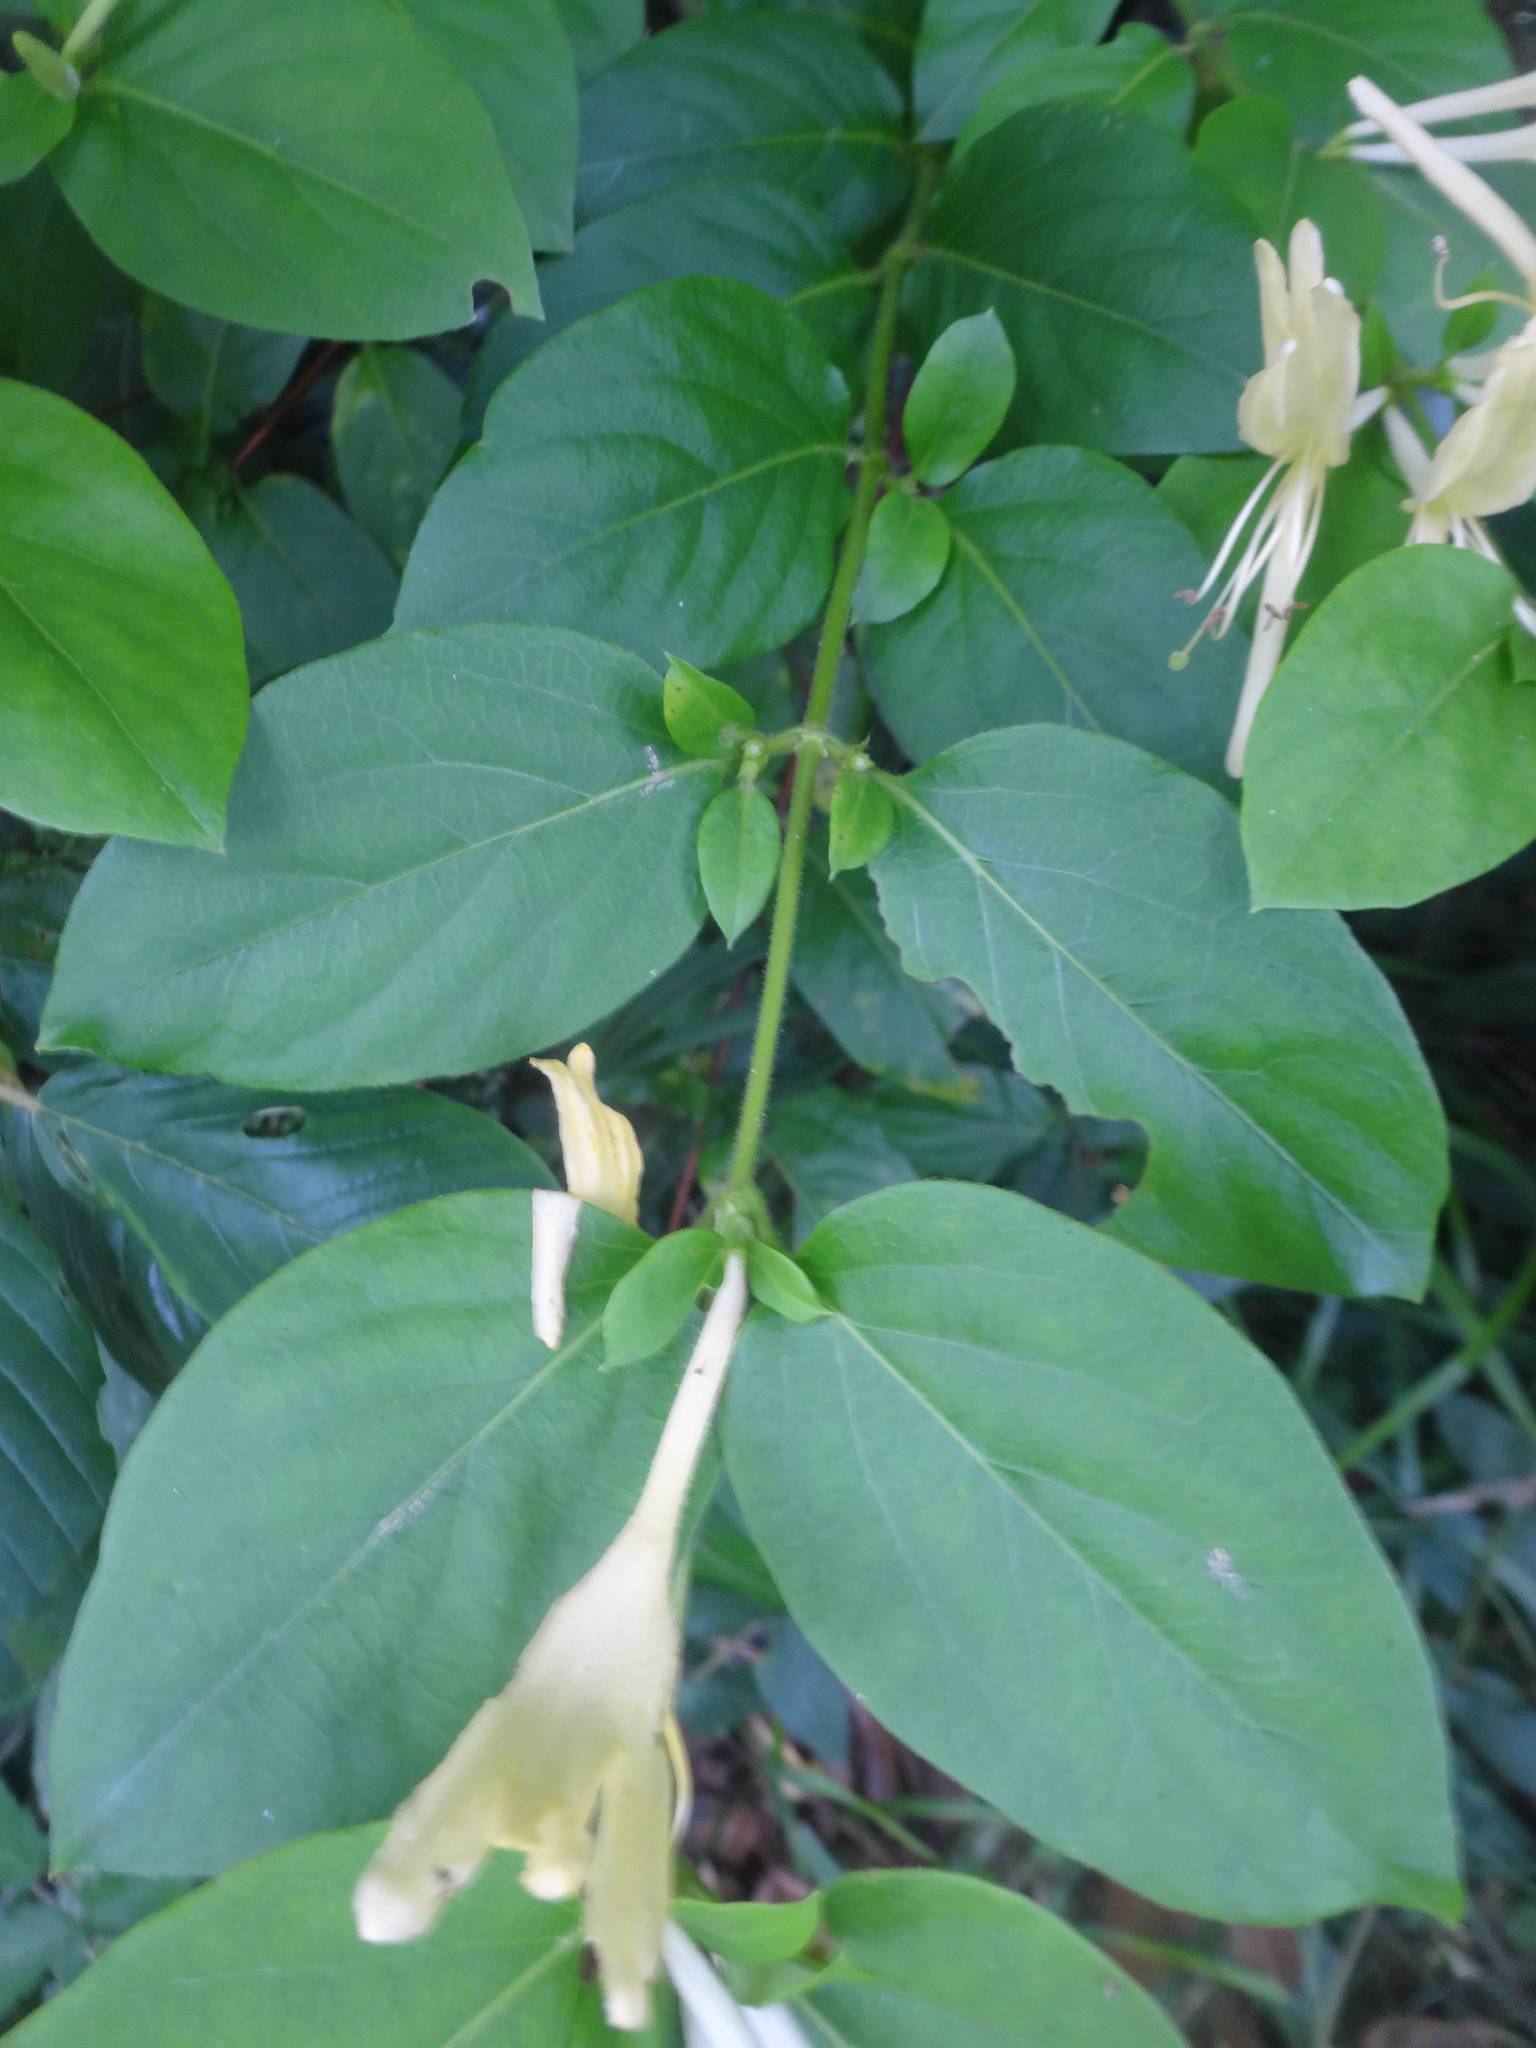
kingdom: Plantae
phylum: Tracheophyta
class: Magnoliopsida
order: Dipsacales
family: Caprifoliaceae
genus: Lonicera
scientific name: Lonicera japonica
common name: Japanese honeysuckle
